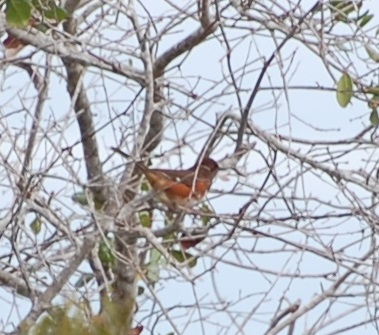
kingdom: Animalia
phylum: Chordata
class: Aves
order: Passeriformes
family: Passerellidae
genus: Pipilo
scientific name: Pipilo erythrophthalmus
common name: Eastern towhee
